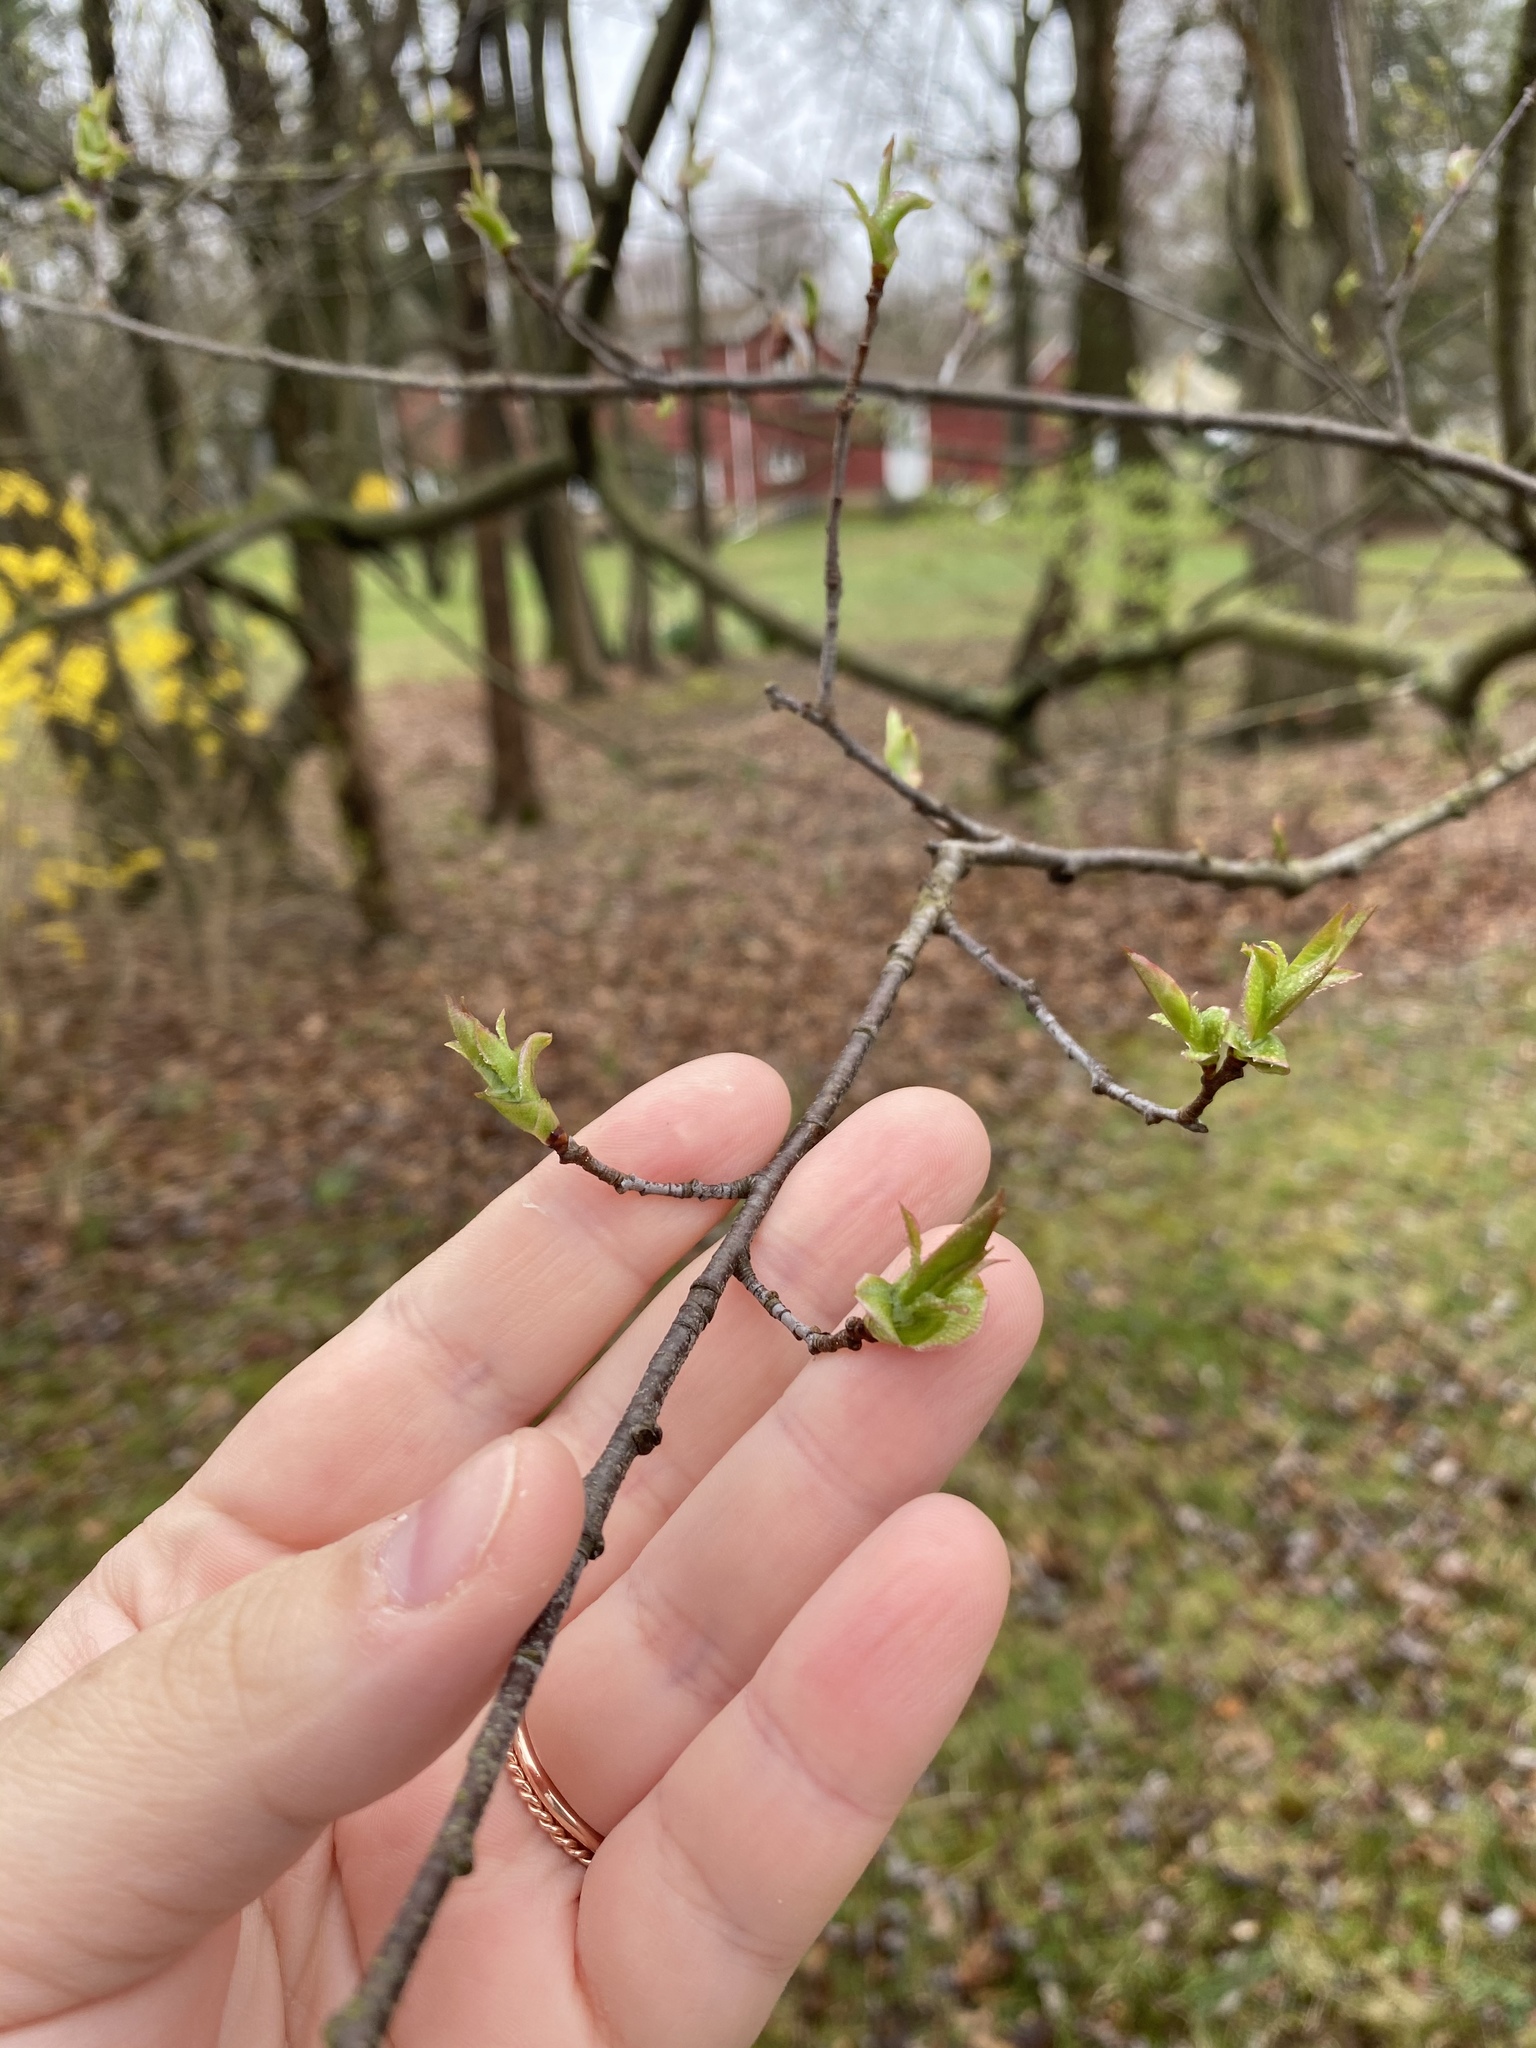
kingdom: Plantae
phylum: Tracheophyta
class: Magnoliopsida
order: Rosales
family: Rosaceae
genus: Prunus
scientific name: Prunus serotina
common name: Black cherry
